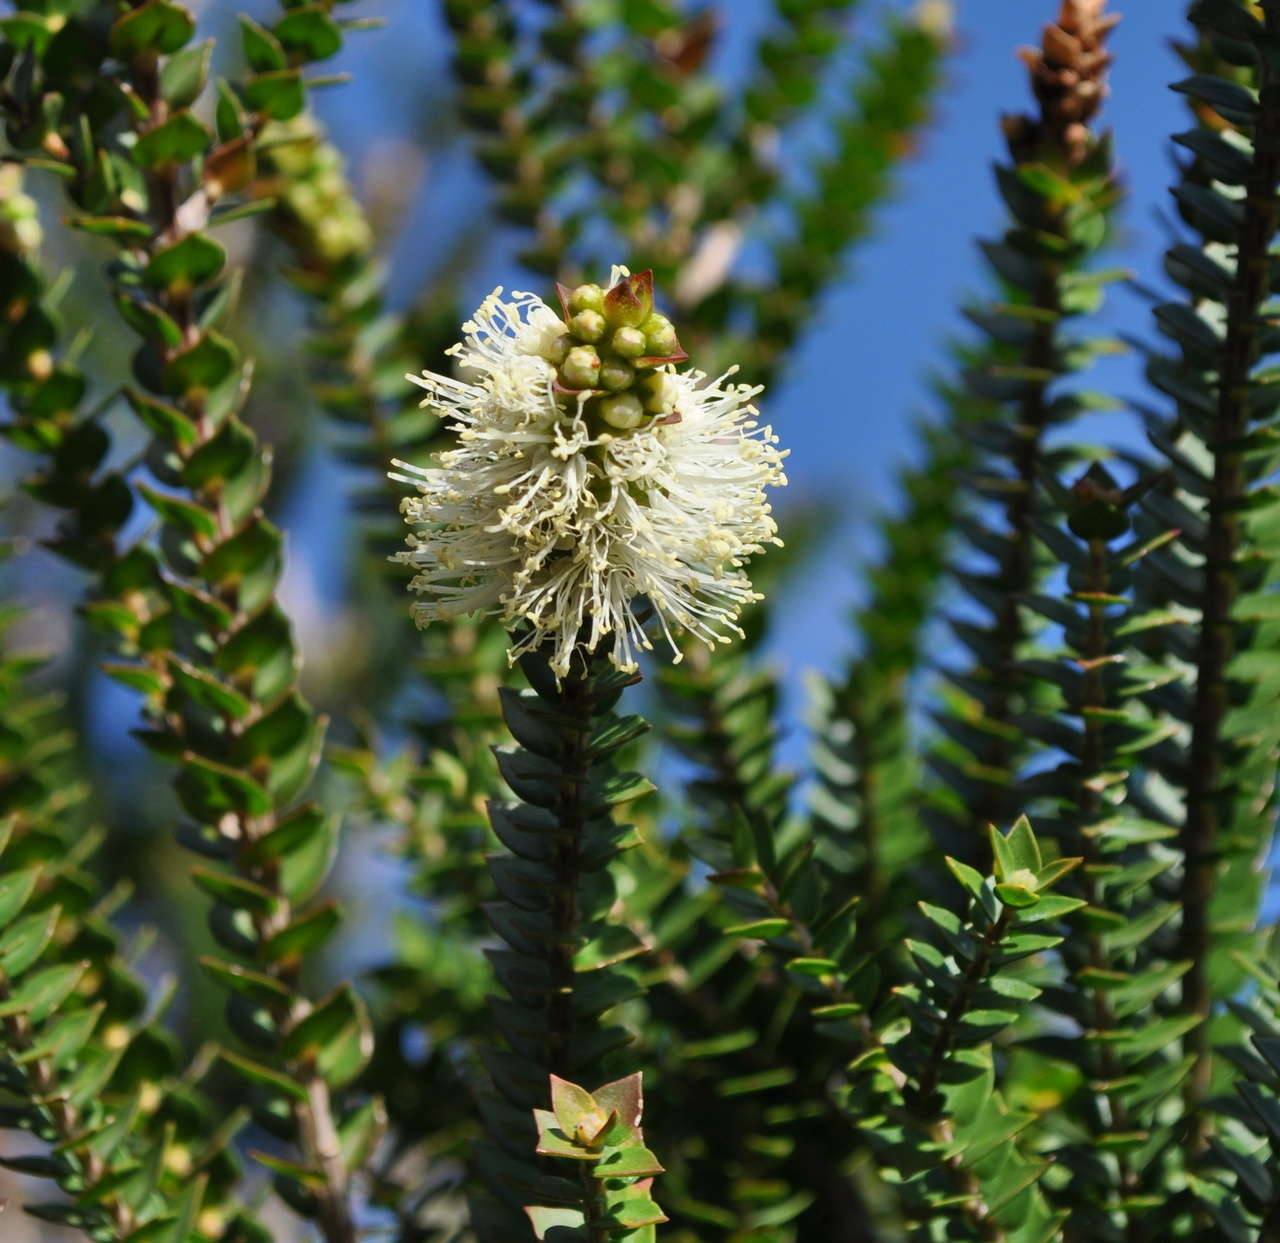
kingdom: Plantae
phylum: Tracheophyta
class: Magnoliopsida
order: Myrtales
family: Myrtaceae
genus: Melaleuca
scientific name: Melaleuca squarrosa
